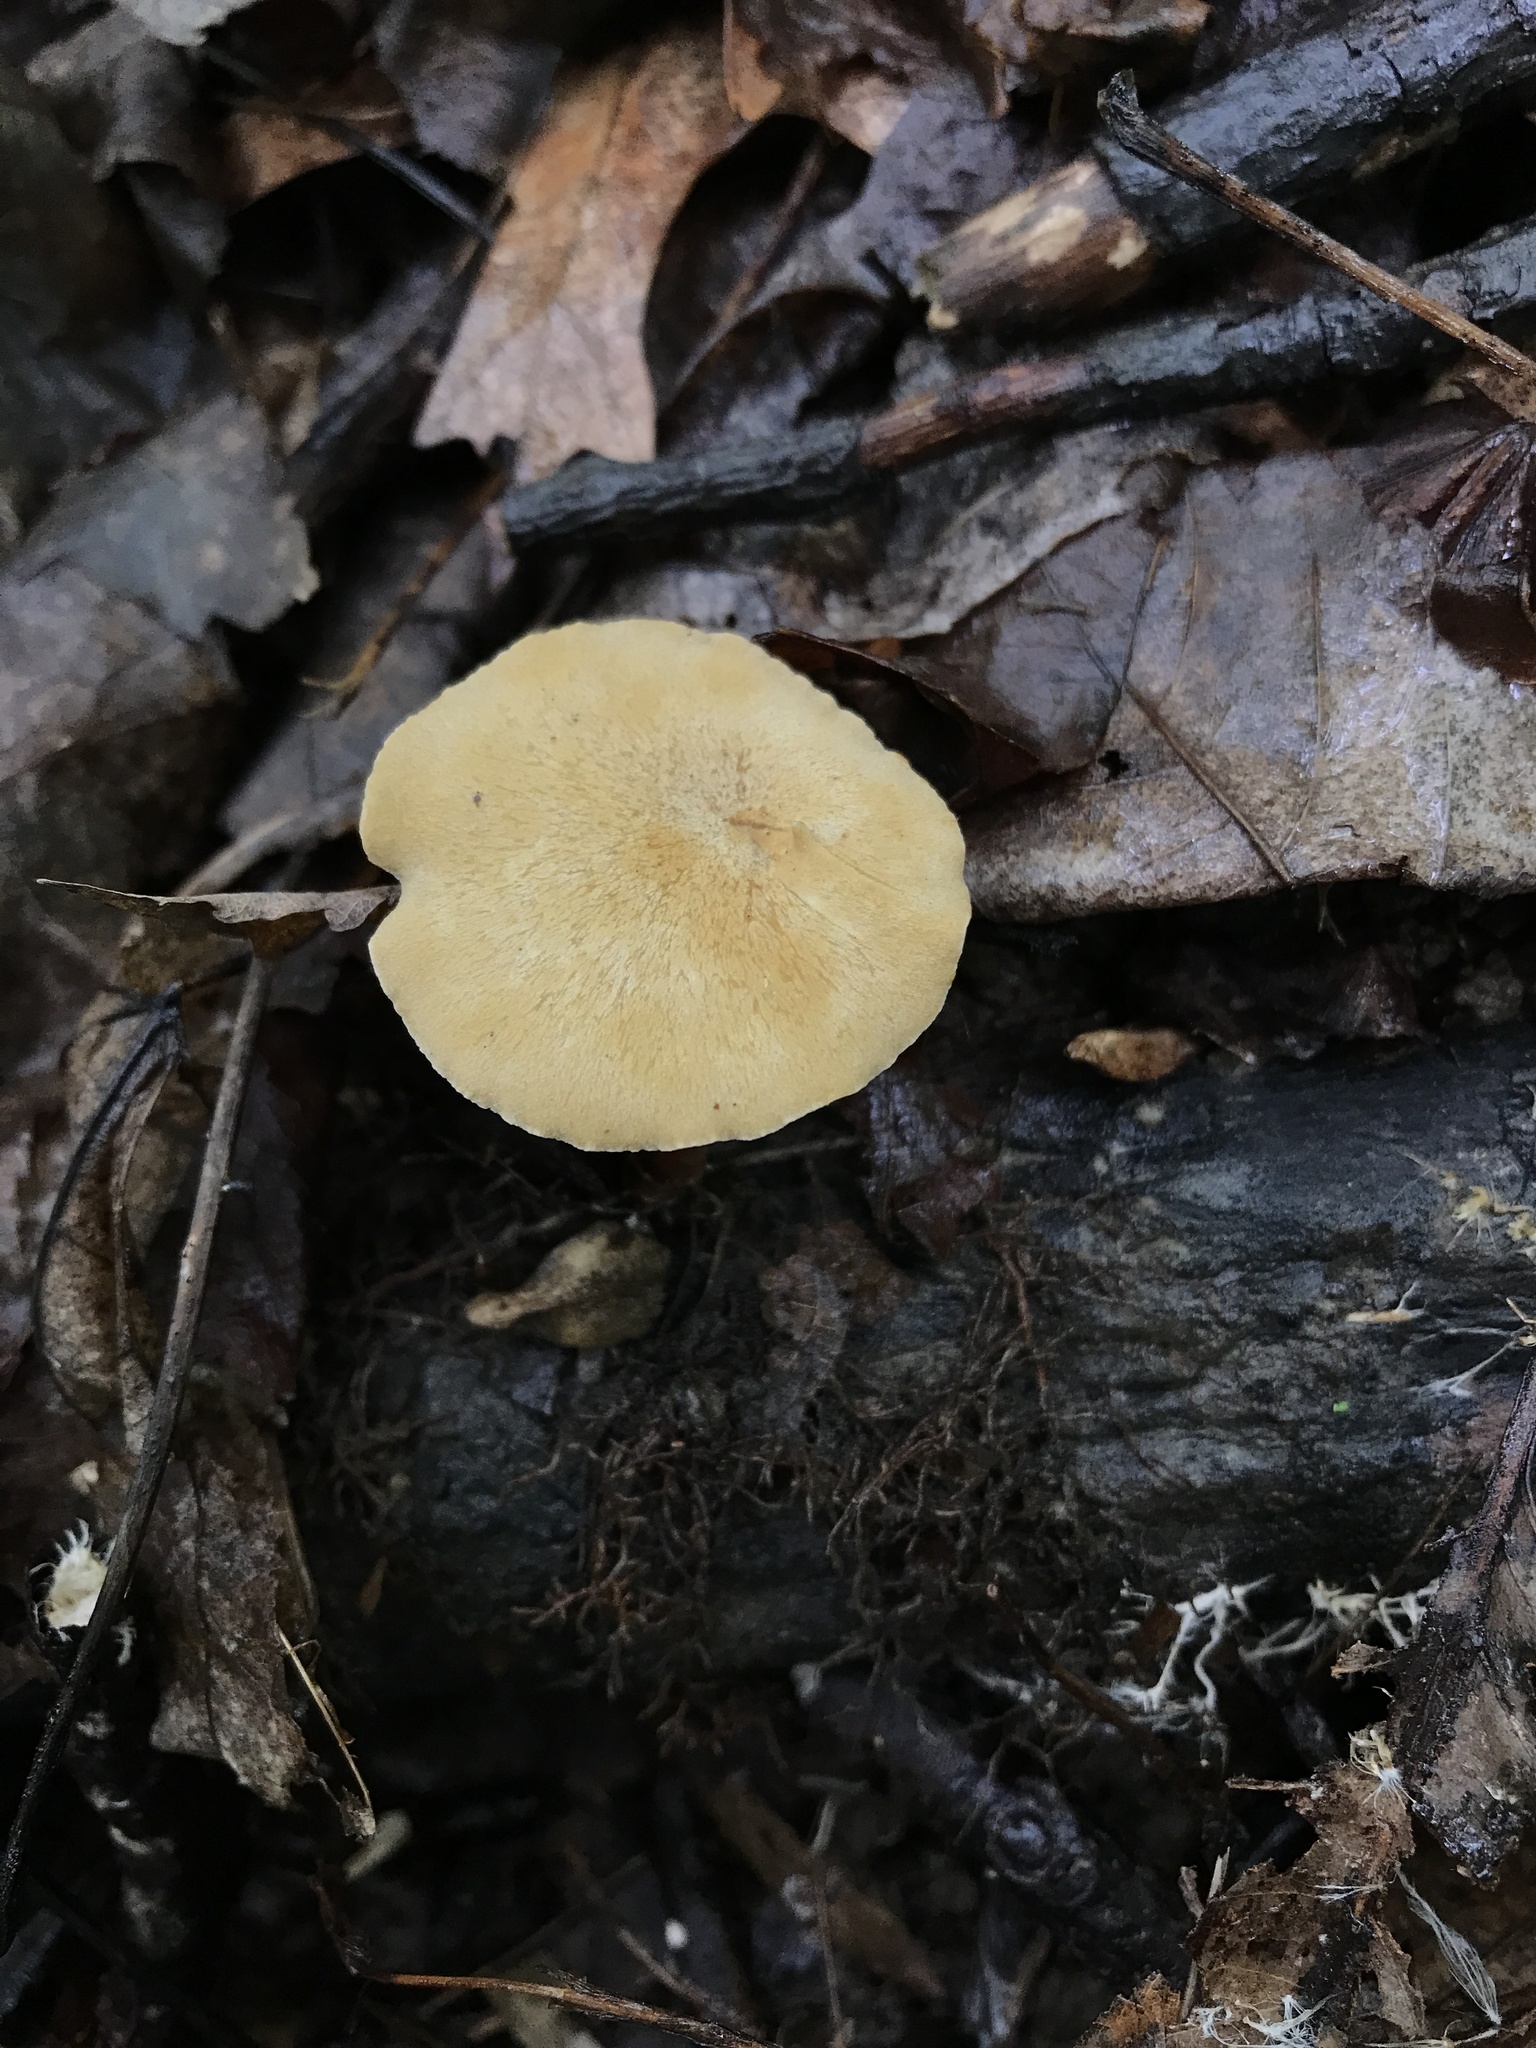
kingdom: Fungi
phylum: Basidiomycota
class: Agaricomycetes
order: Polyporales
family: Polyporaceae
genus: Cerioporus
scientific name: Cerioporus varius
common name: Elegant polypore
